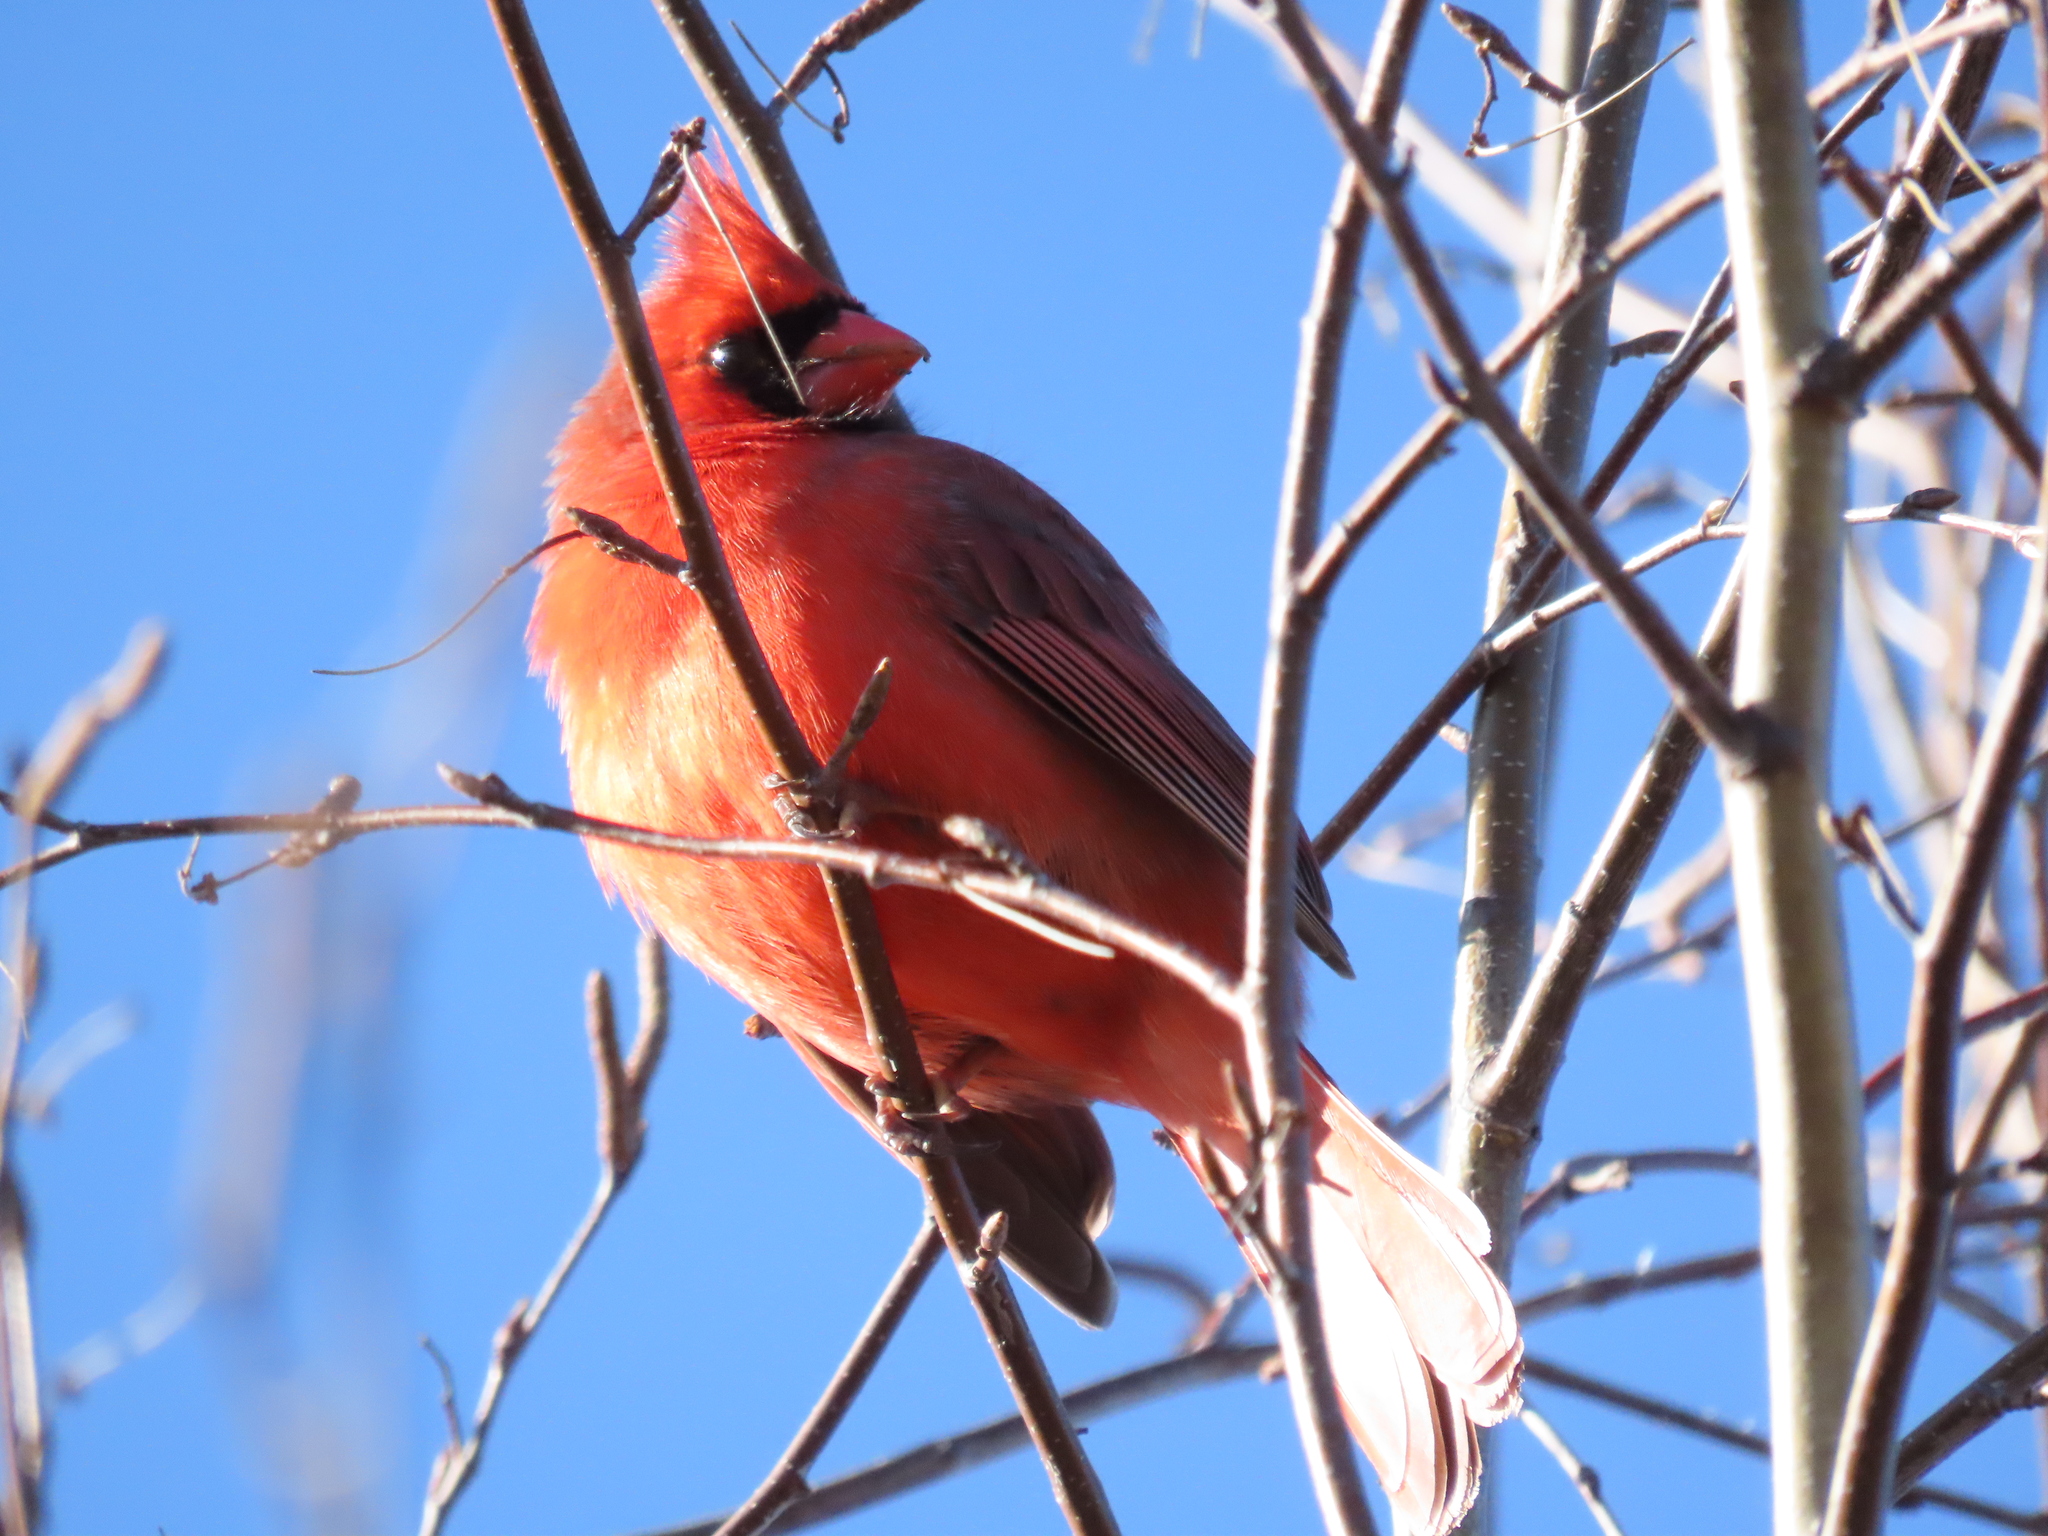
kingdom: Animalia
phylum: Chordata
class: Aves
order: Passeriformes
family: Cardinalidae
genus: Cardinalis
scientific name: Cardinalis cardinalis
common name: Northern cardinal
